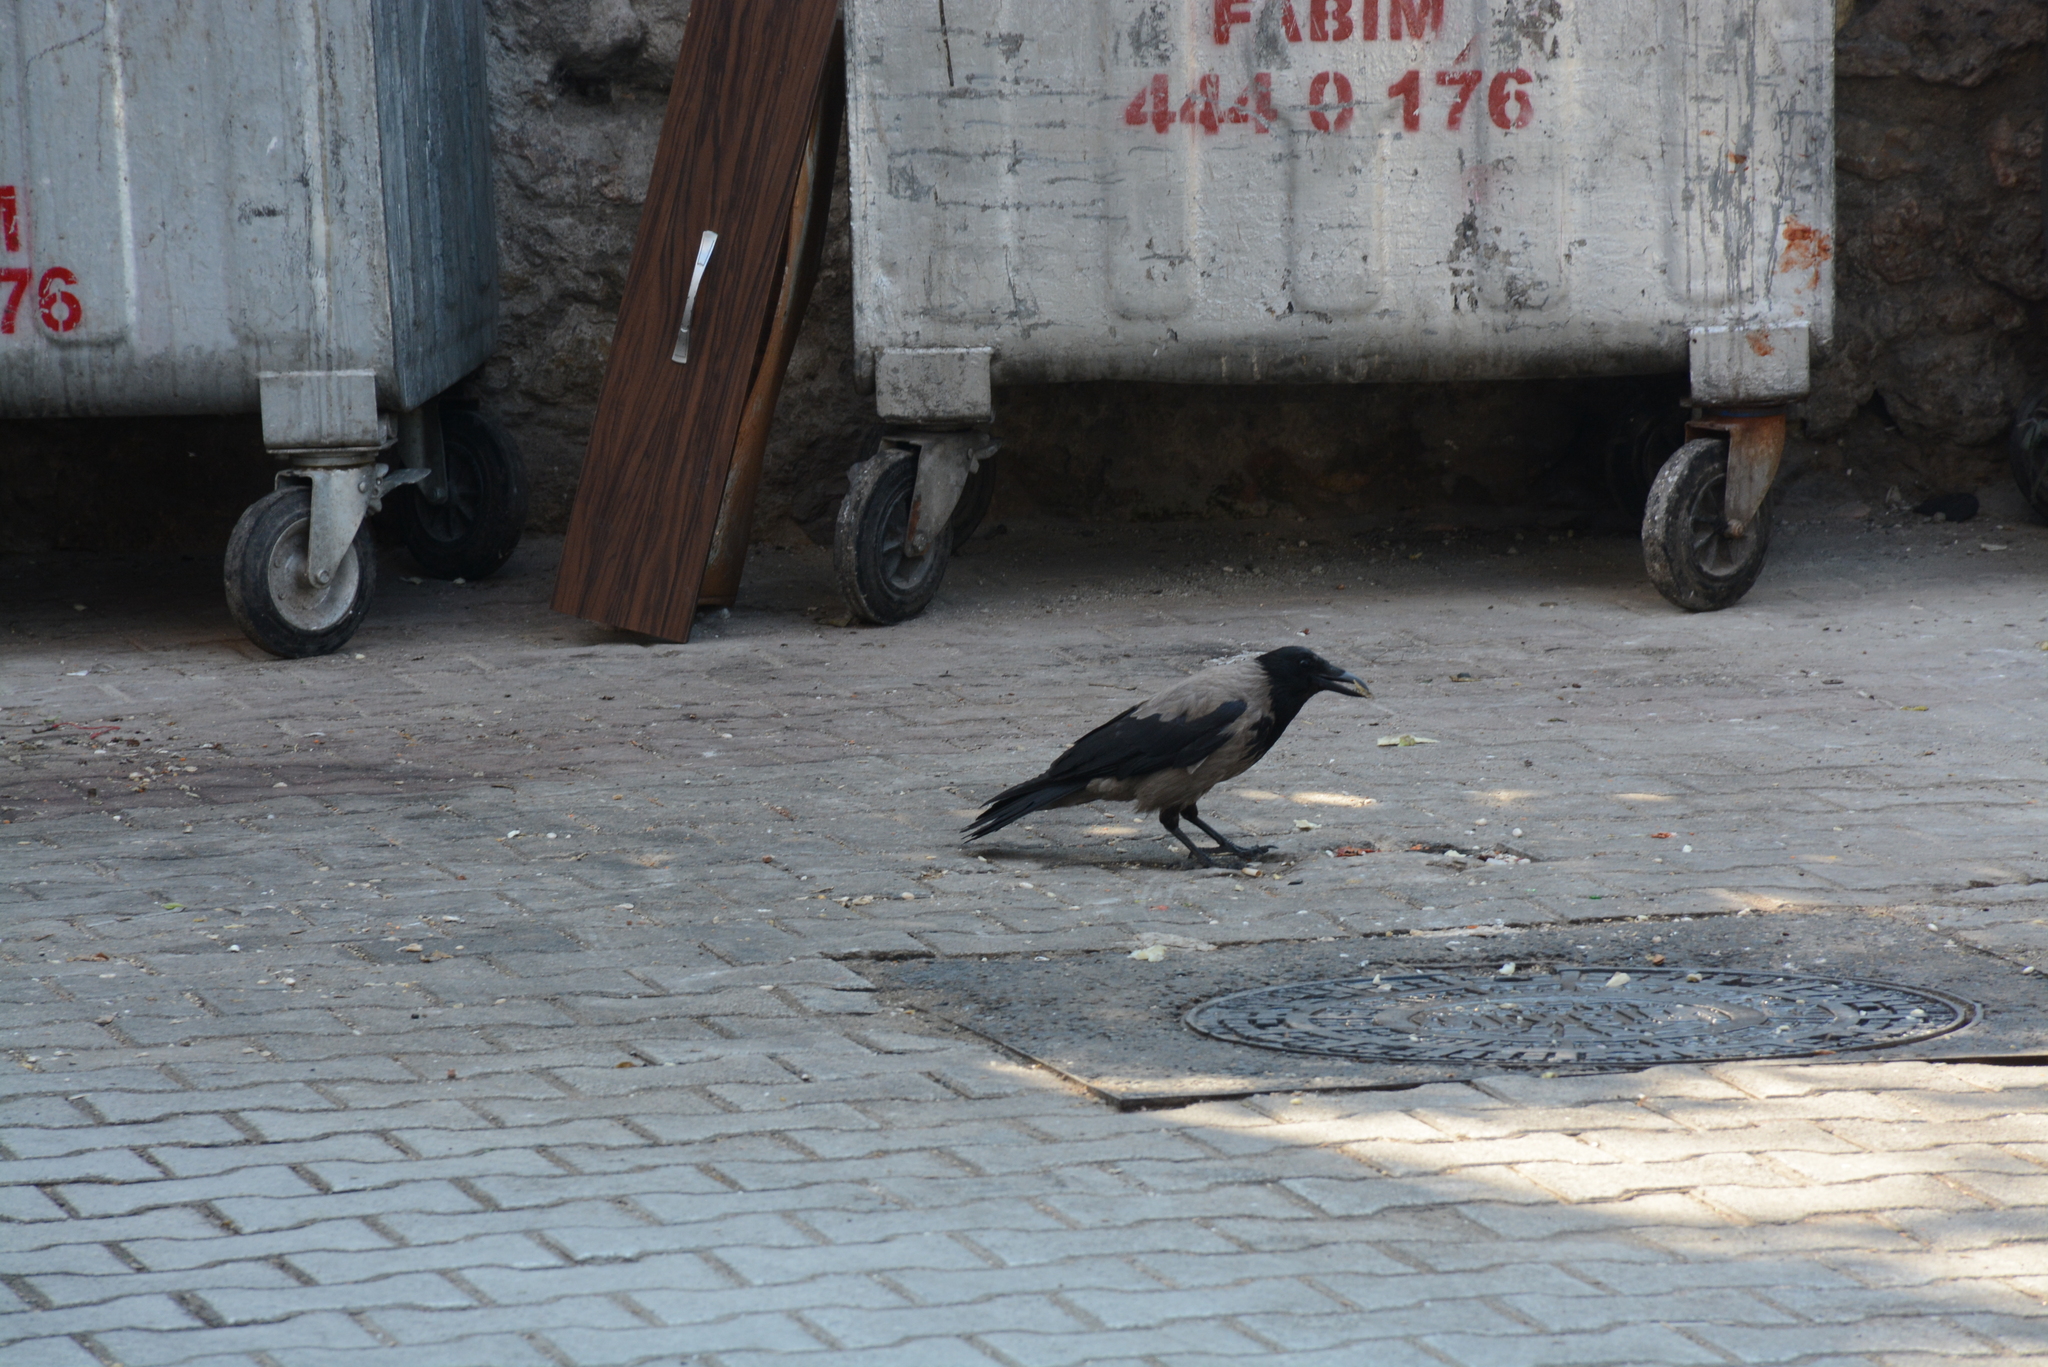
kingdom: Animalia
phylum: Chordata
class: Aves
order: Passeriformes
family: Corvidae
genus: Corvus
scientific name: Corvus cornix
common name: Hooded crow
